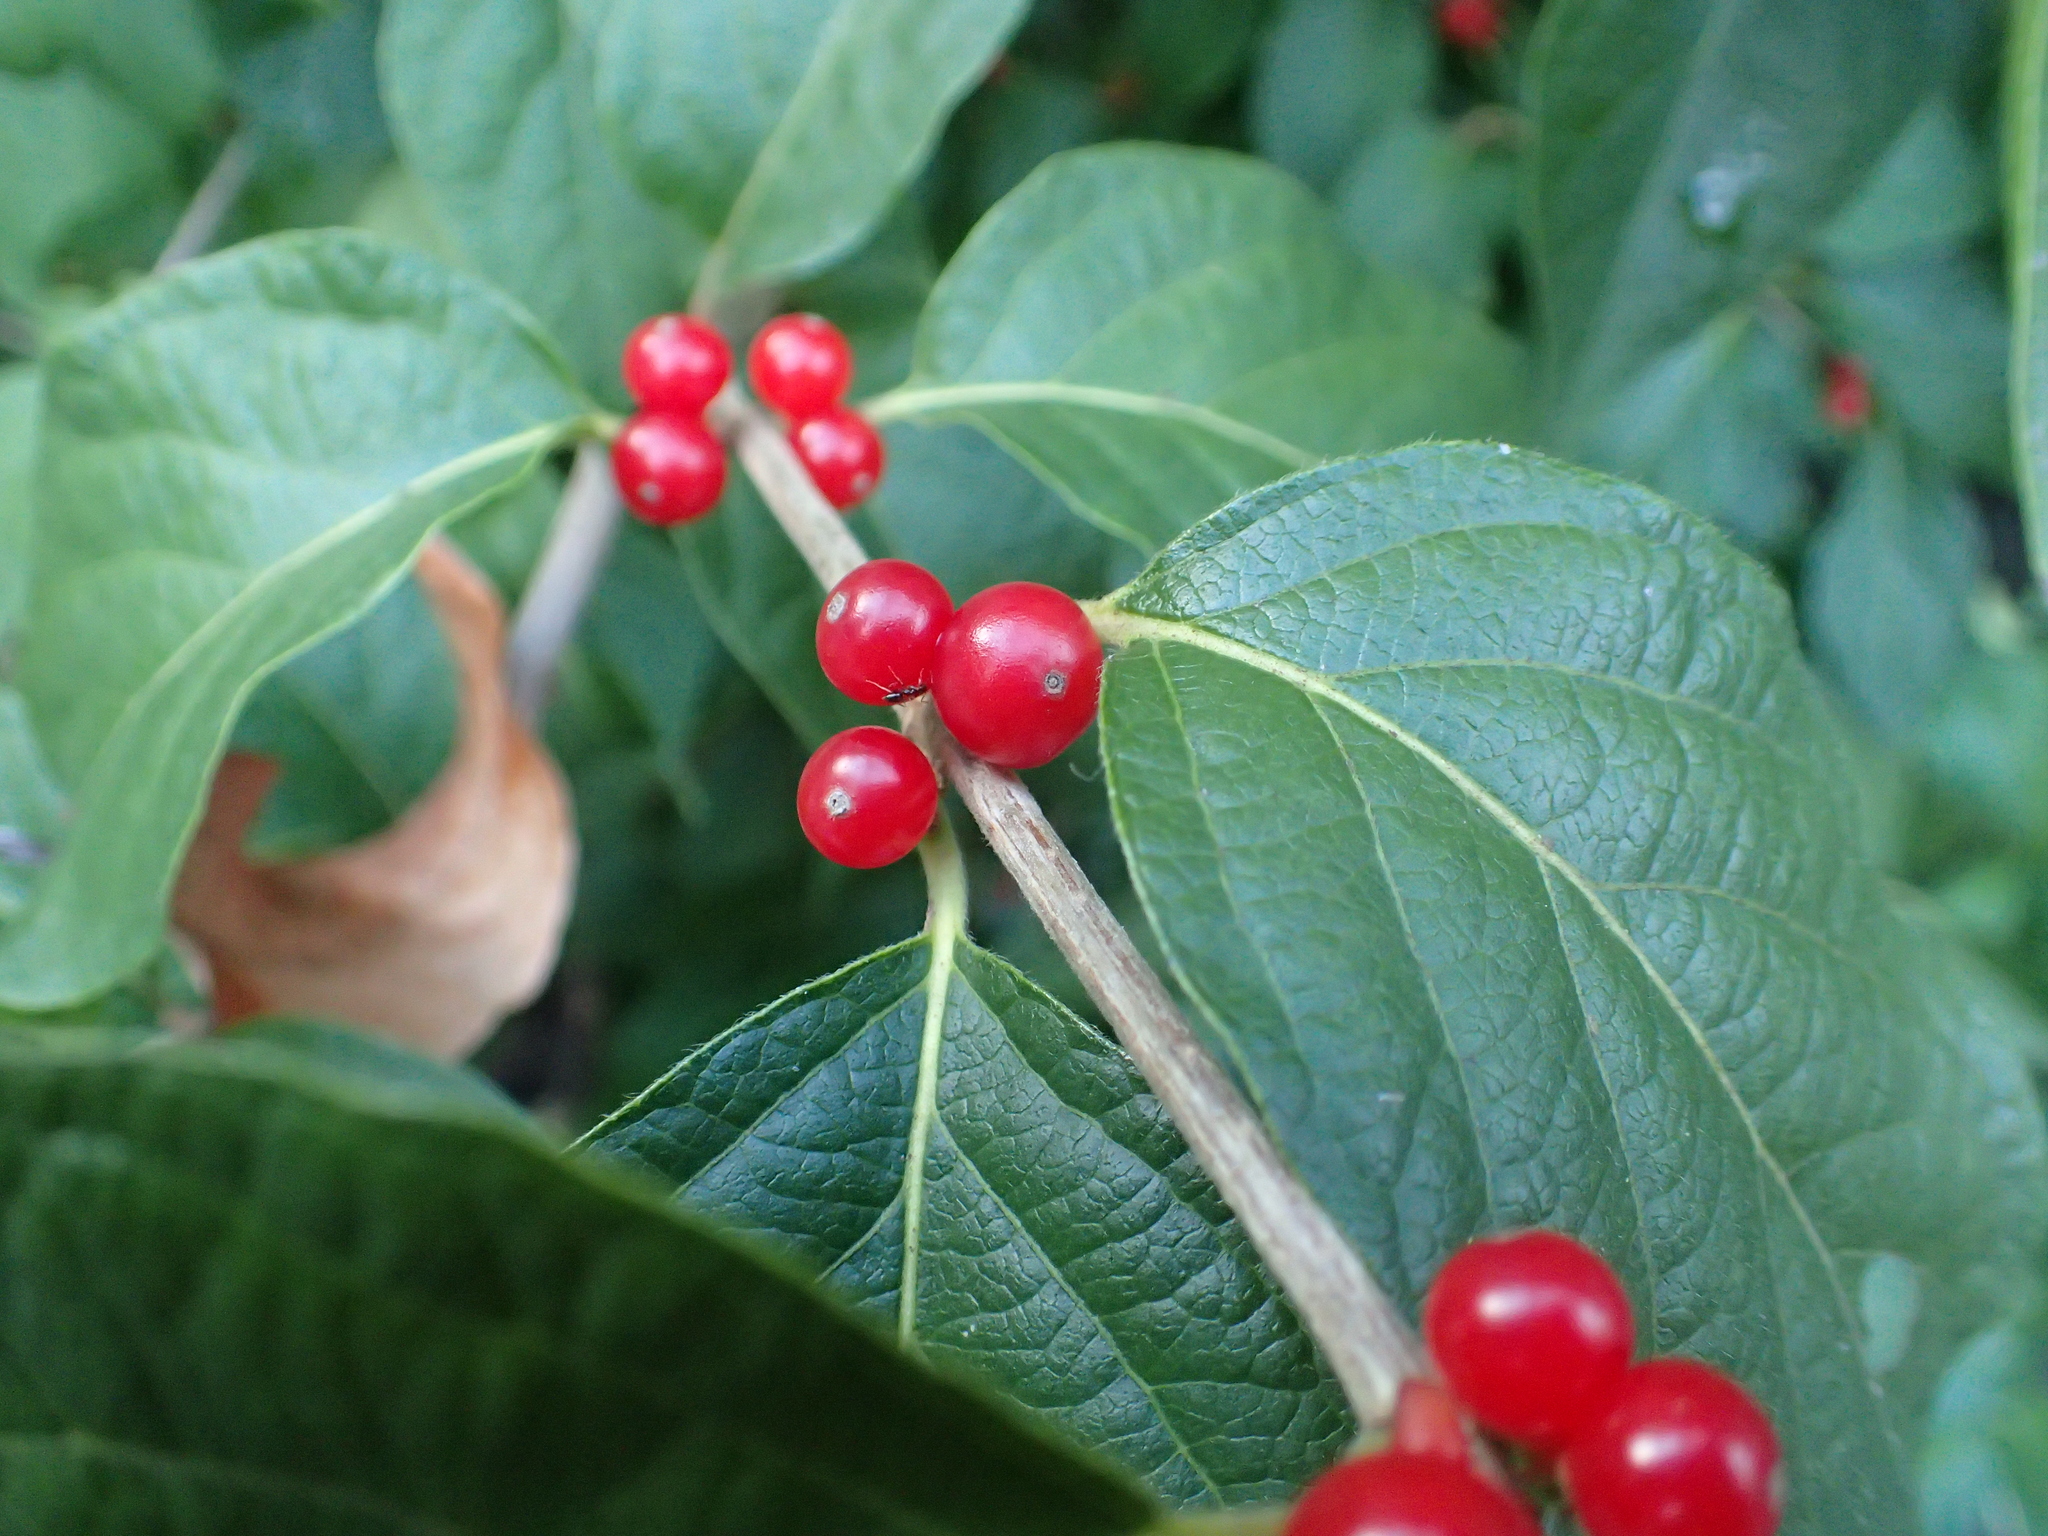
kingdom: Plantae
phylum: Tracheophyta
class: Magnoliopsida
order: Dipsacales
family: Caprifoliaceae
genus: Lonicera
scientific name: Lonicera maackii
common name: Amur honeysuckle
